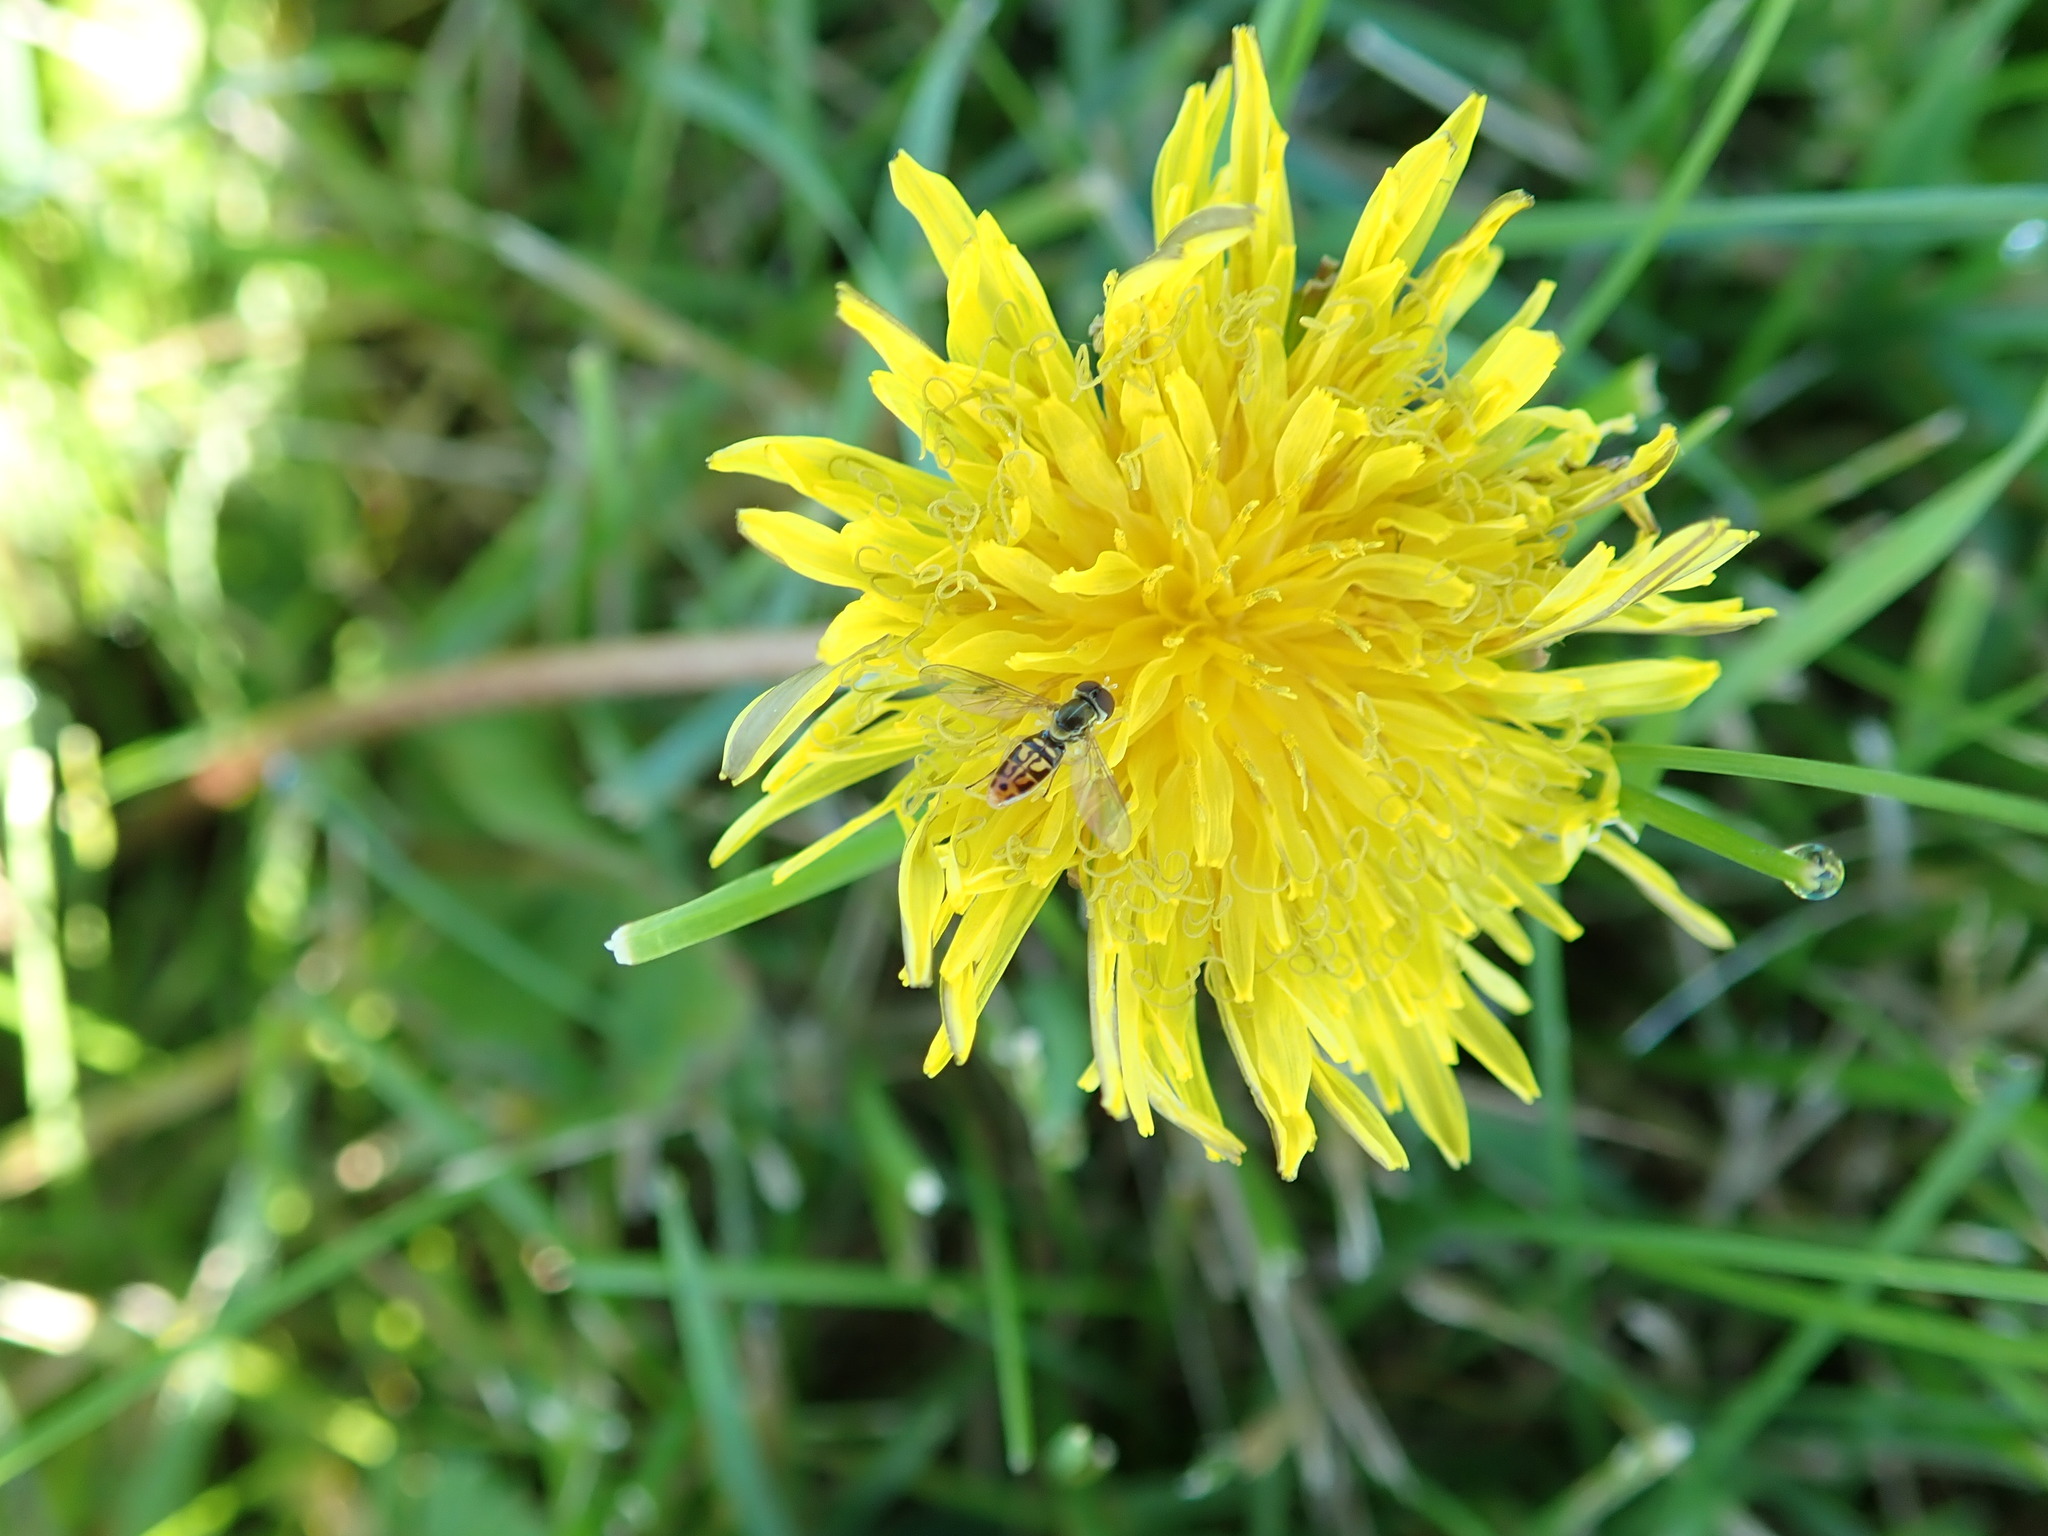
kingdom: Animalia
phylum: Arthropoda
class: Insecta
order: Diptera
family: Syrphidae
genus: Toxomerus
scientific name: Toxomerus marginatus
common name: Syrphid fly
